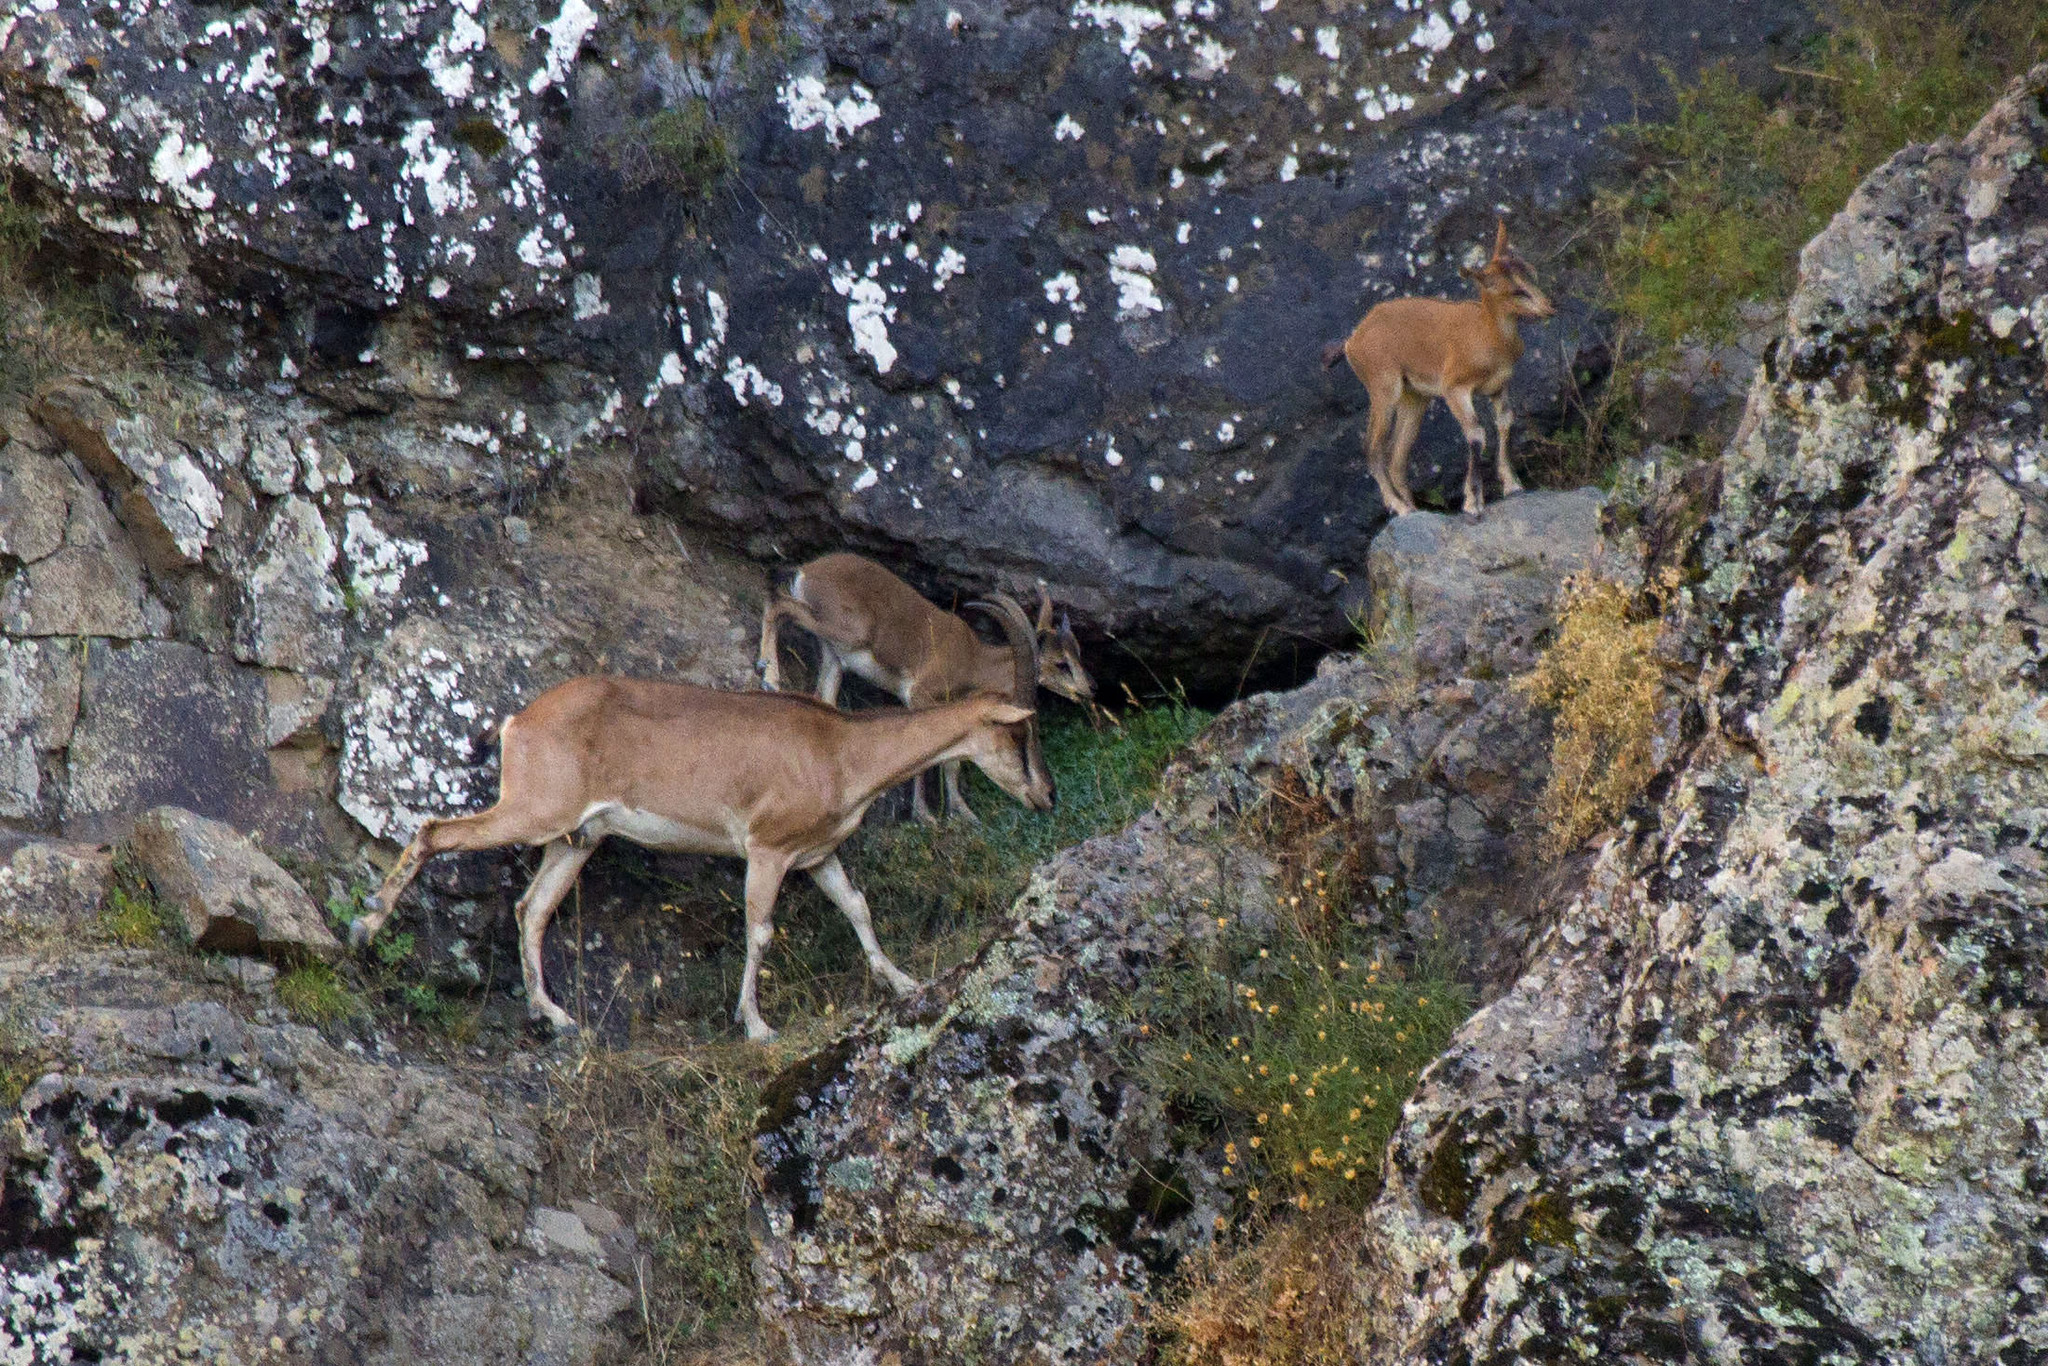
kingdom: Animalia
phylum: Chordata
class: Mammalia
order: Artiodactyla
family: Bovidae
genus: Capra
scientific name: Capra hircus
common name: Domestic goat
